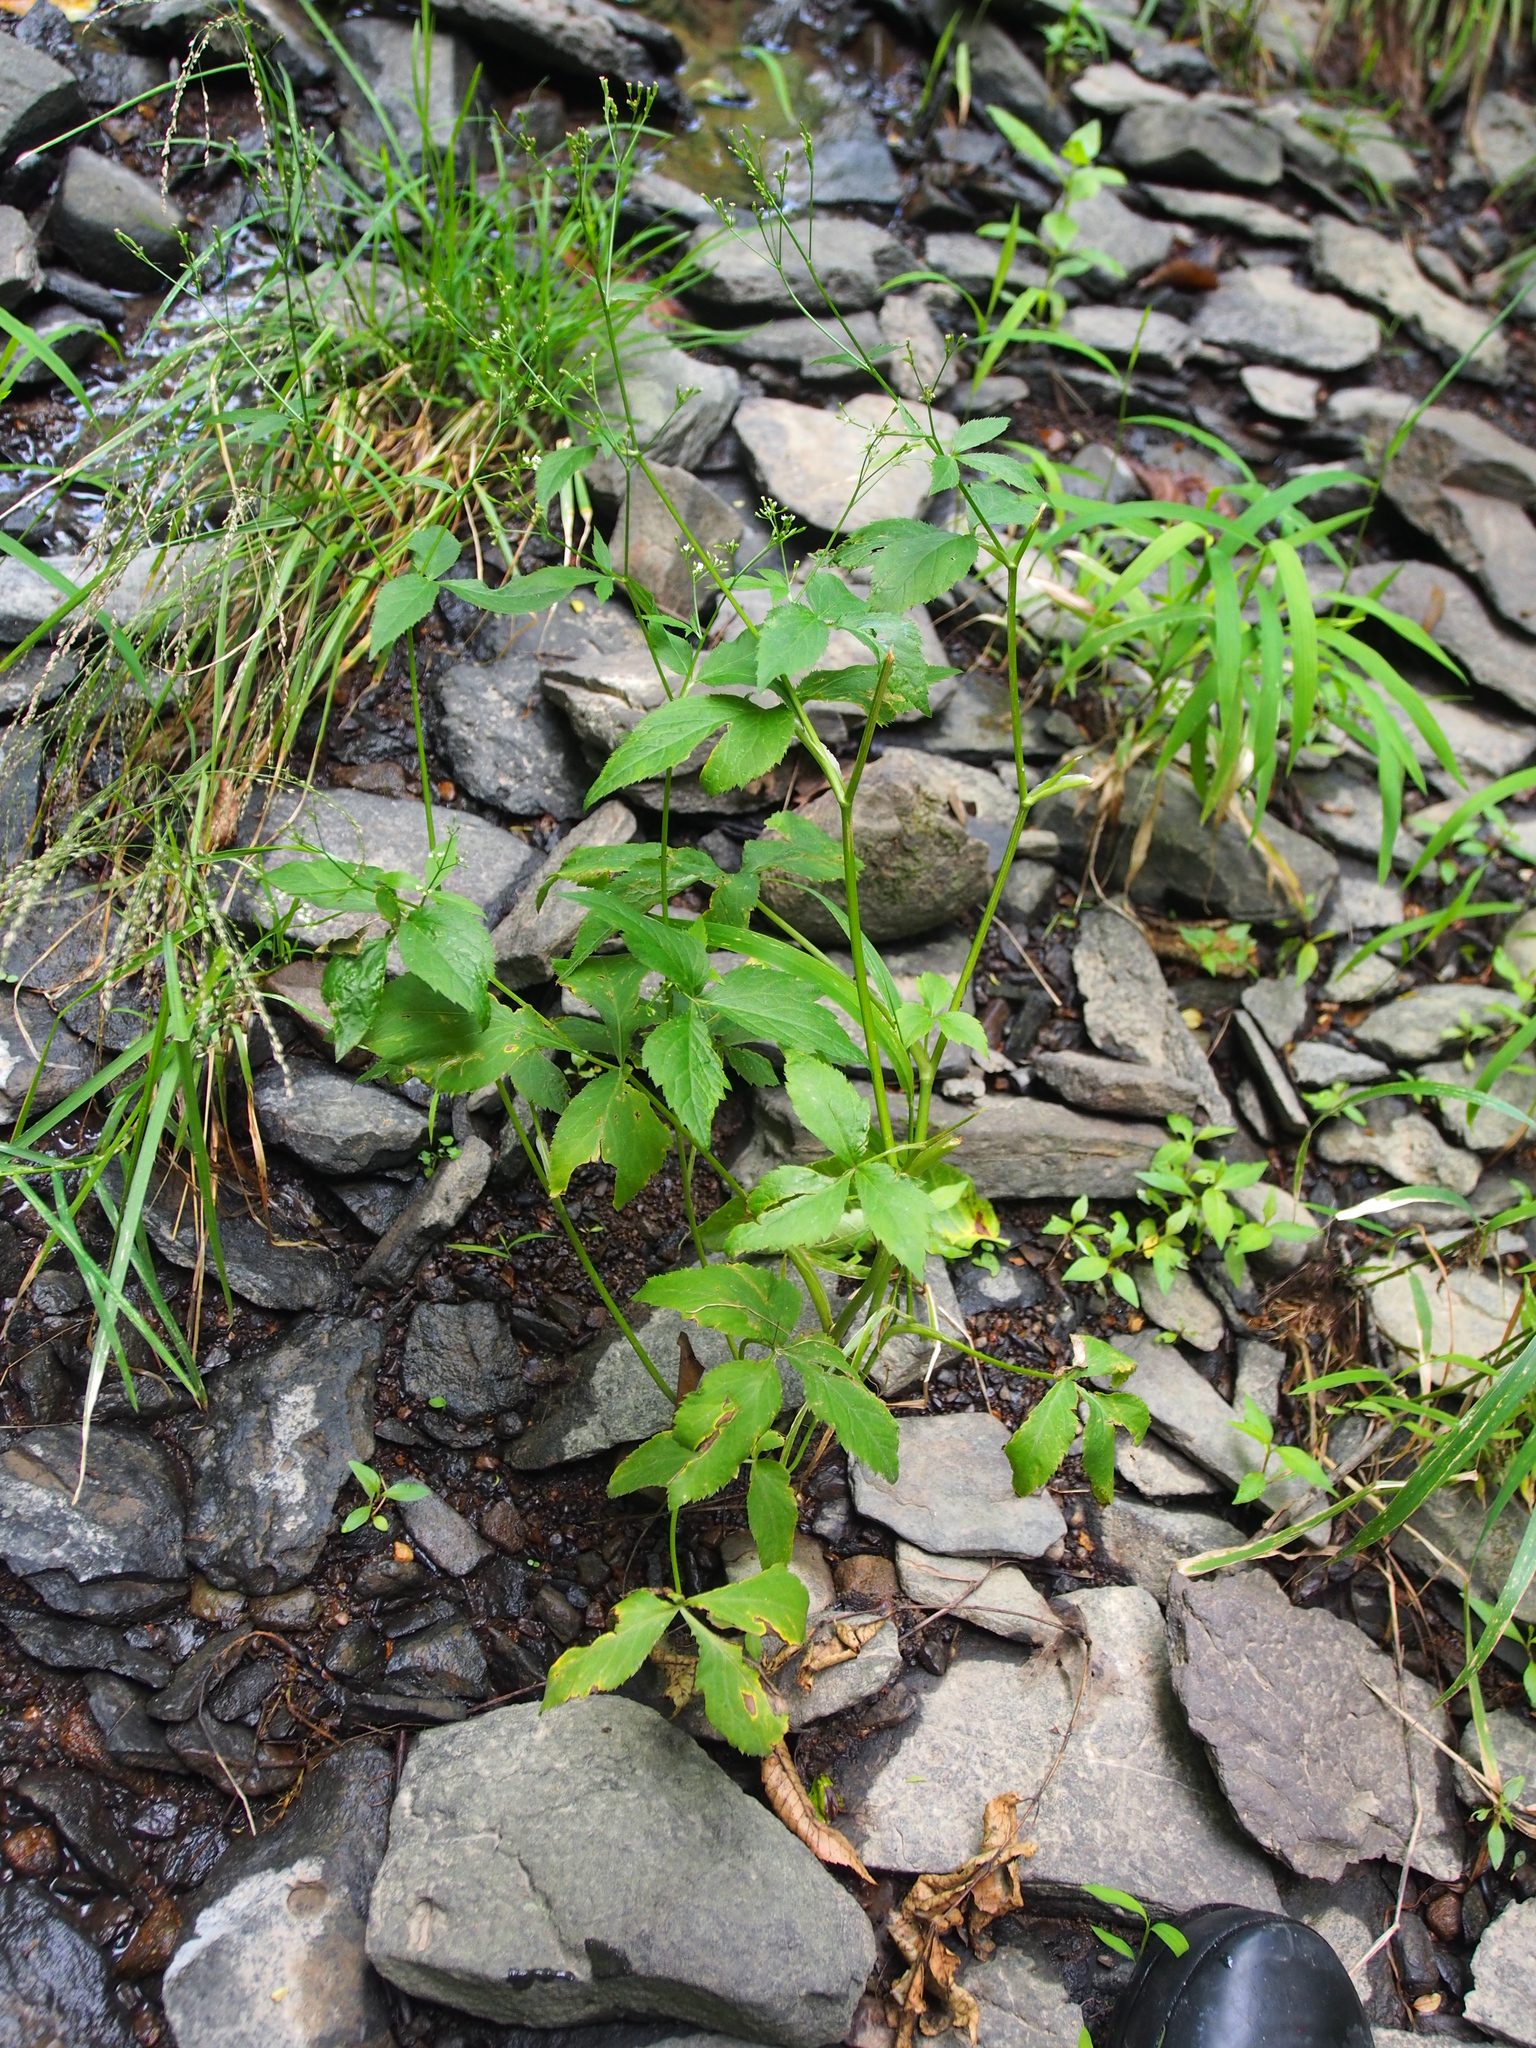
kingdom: Plantae
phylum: Tracheophyta
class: Magnoliopsida
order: Apiales
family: Apiaceae
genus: Cryptotaenia
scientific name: Cryptotaenia canadensis
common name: Honewort
